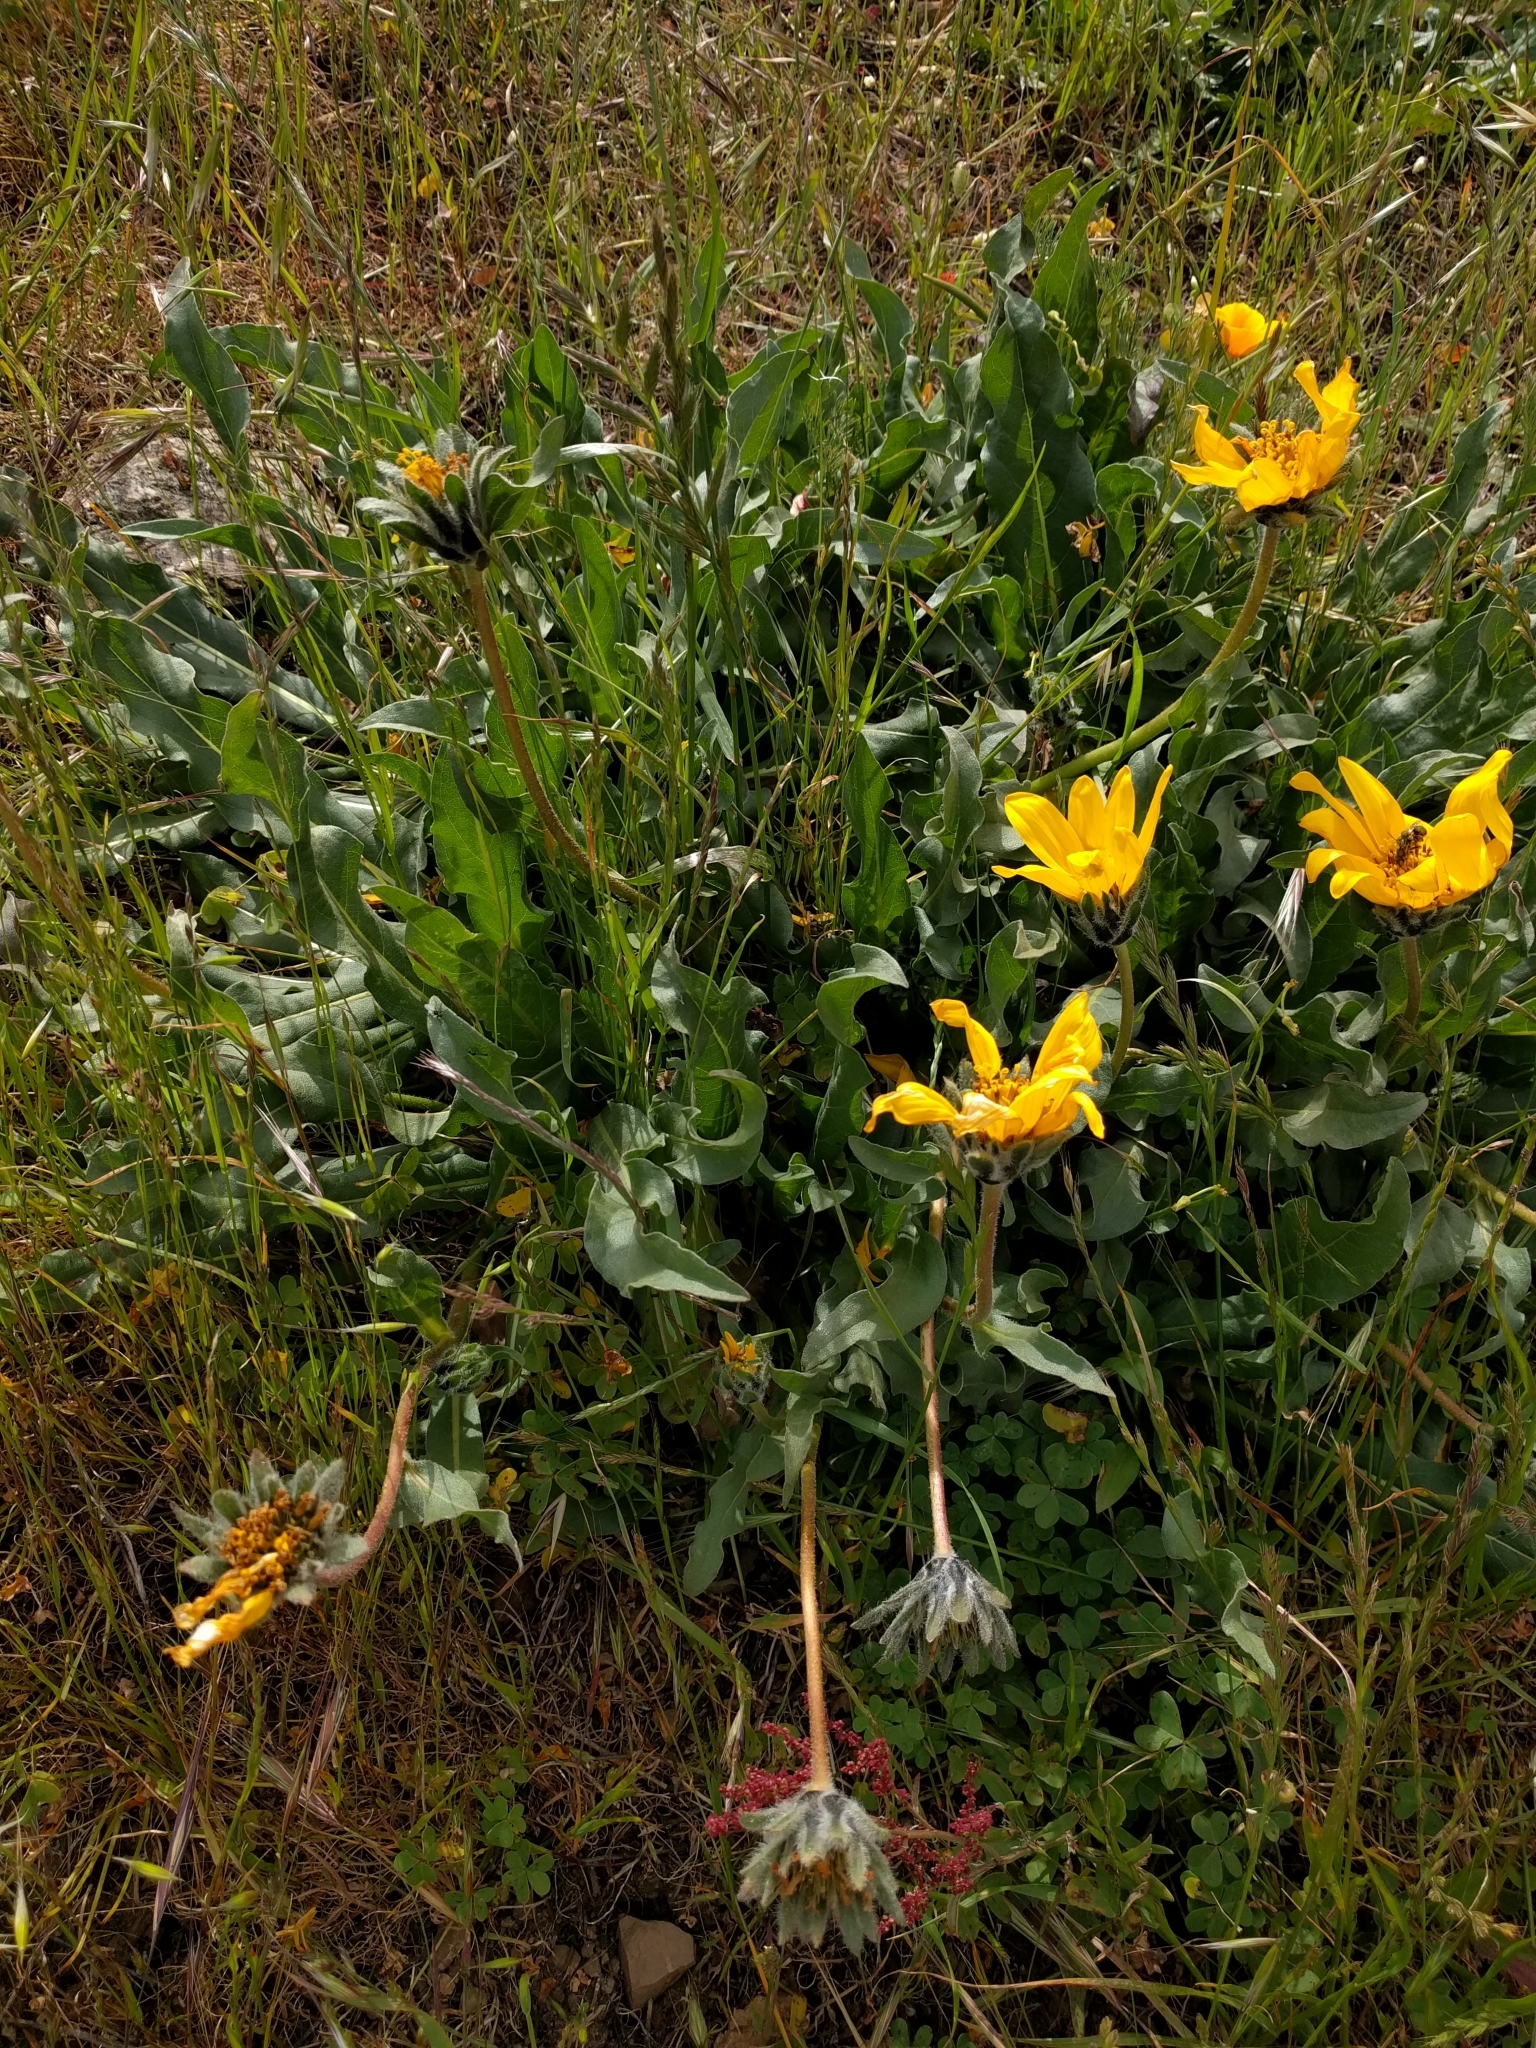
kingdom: Plantae
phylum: Tracheophyta
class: Magnoliopsida
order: Asterales
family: Asteraceae
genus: Wyethia
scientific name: Wyethia angustifolia
